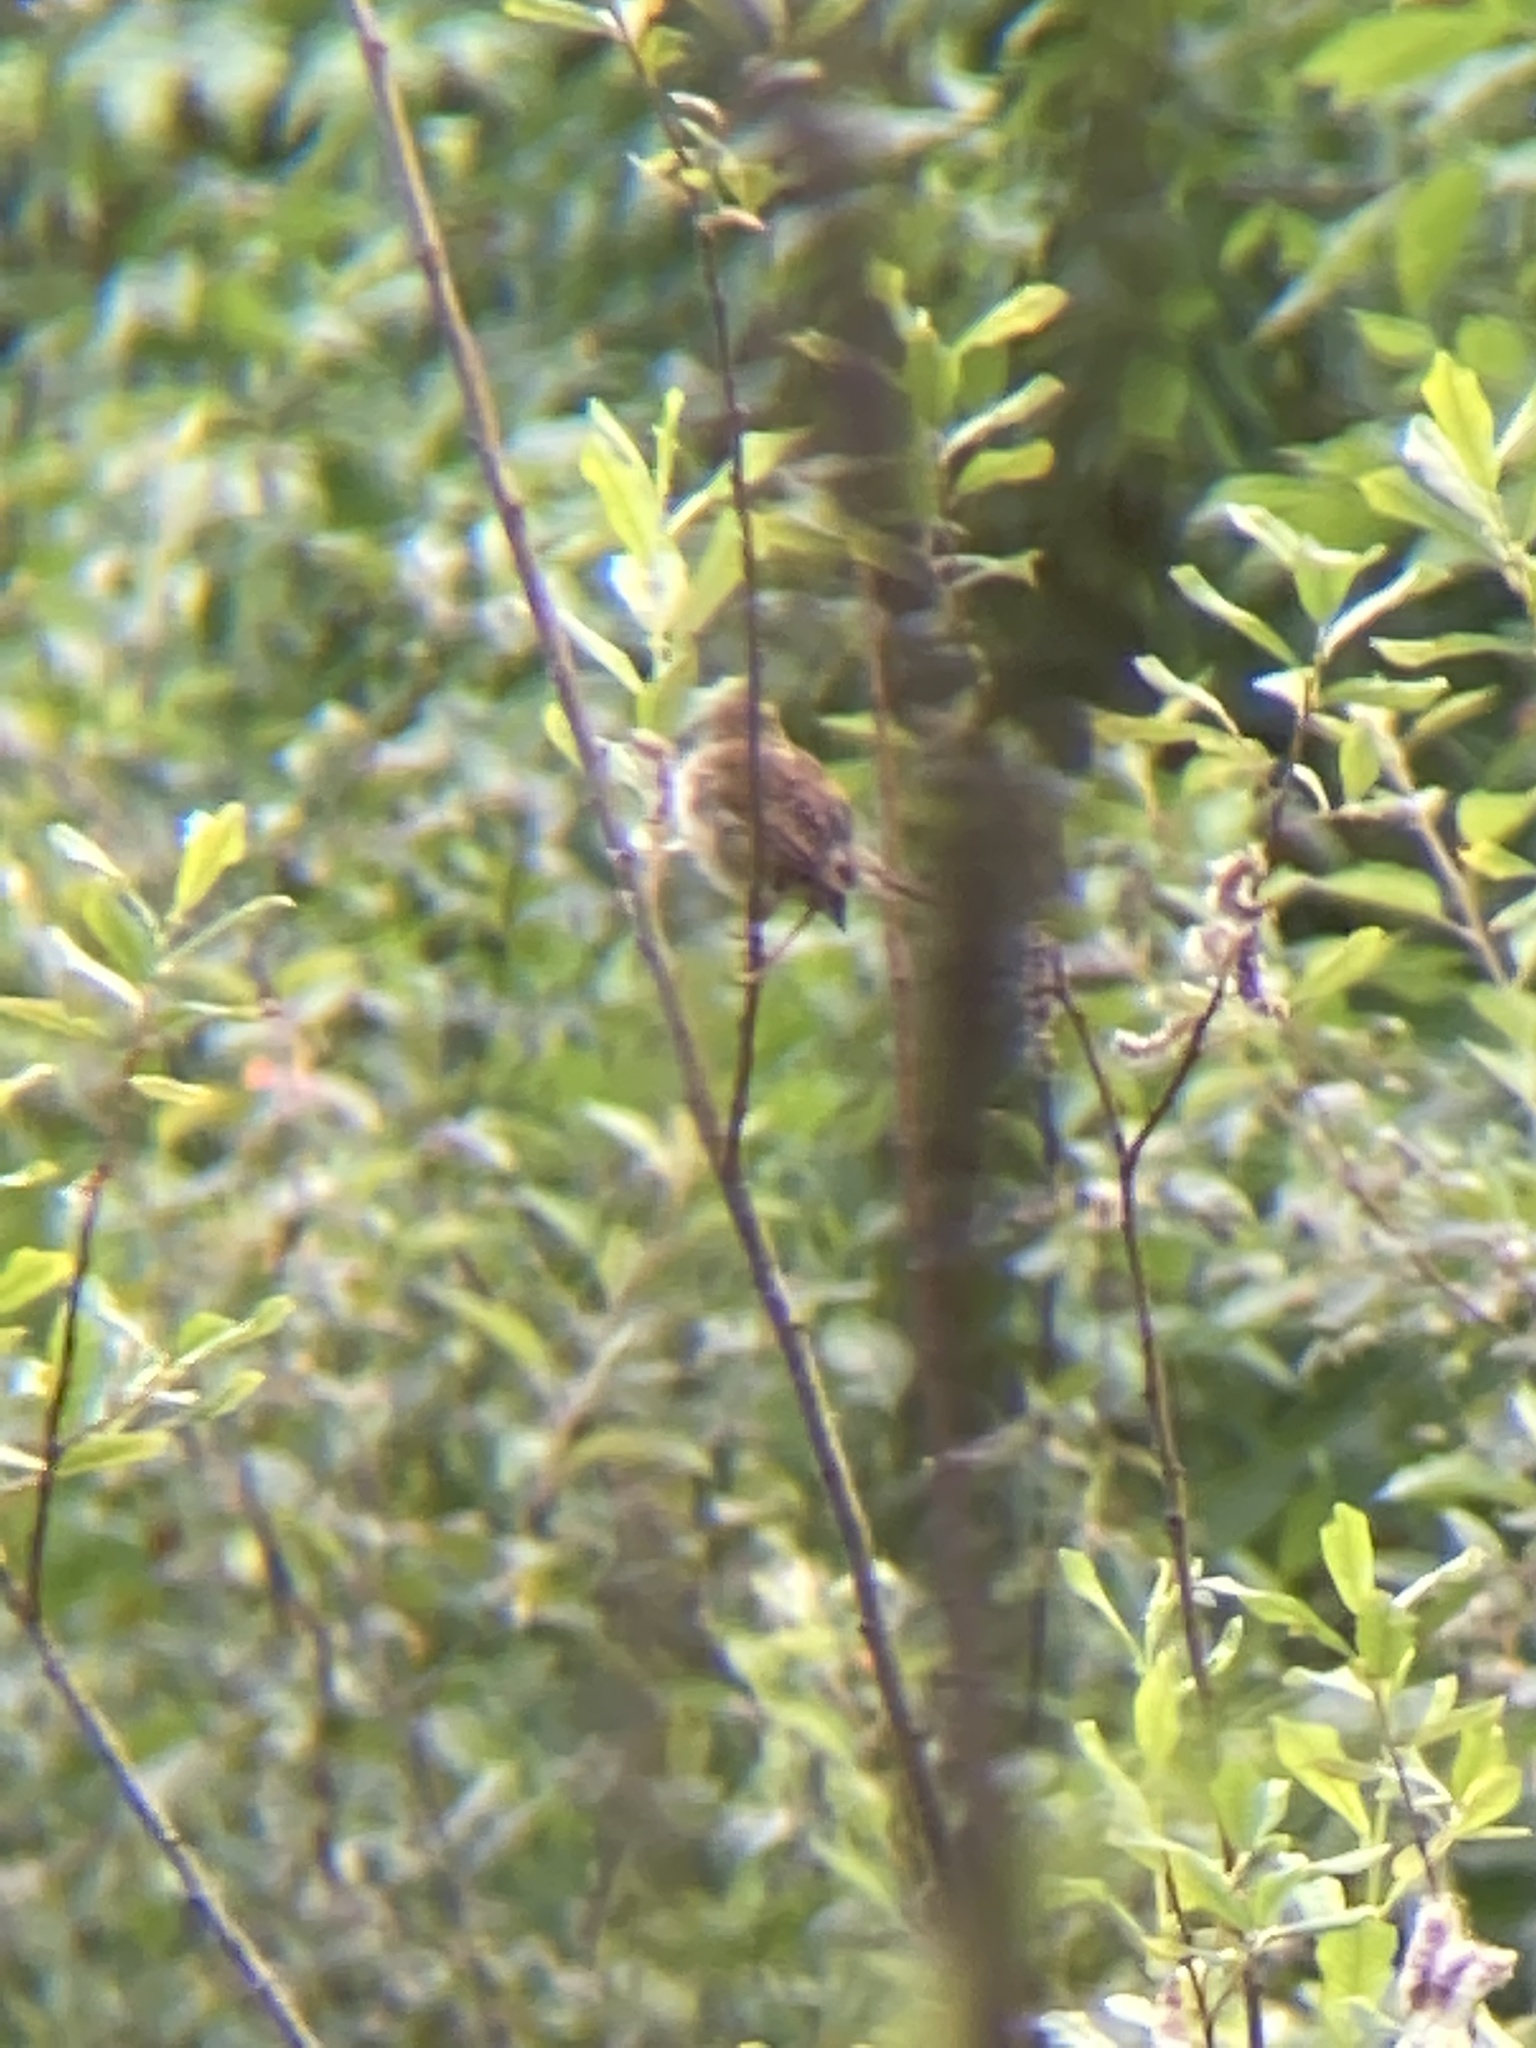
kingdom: Animalia
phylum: Chordata
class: Aves
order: Passeriformes
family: Troglodytidae
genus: Cistothorus
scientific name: Cistothorus palustris
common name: Marsh wren
